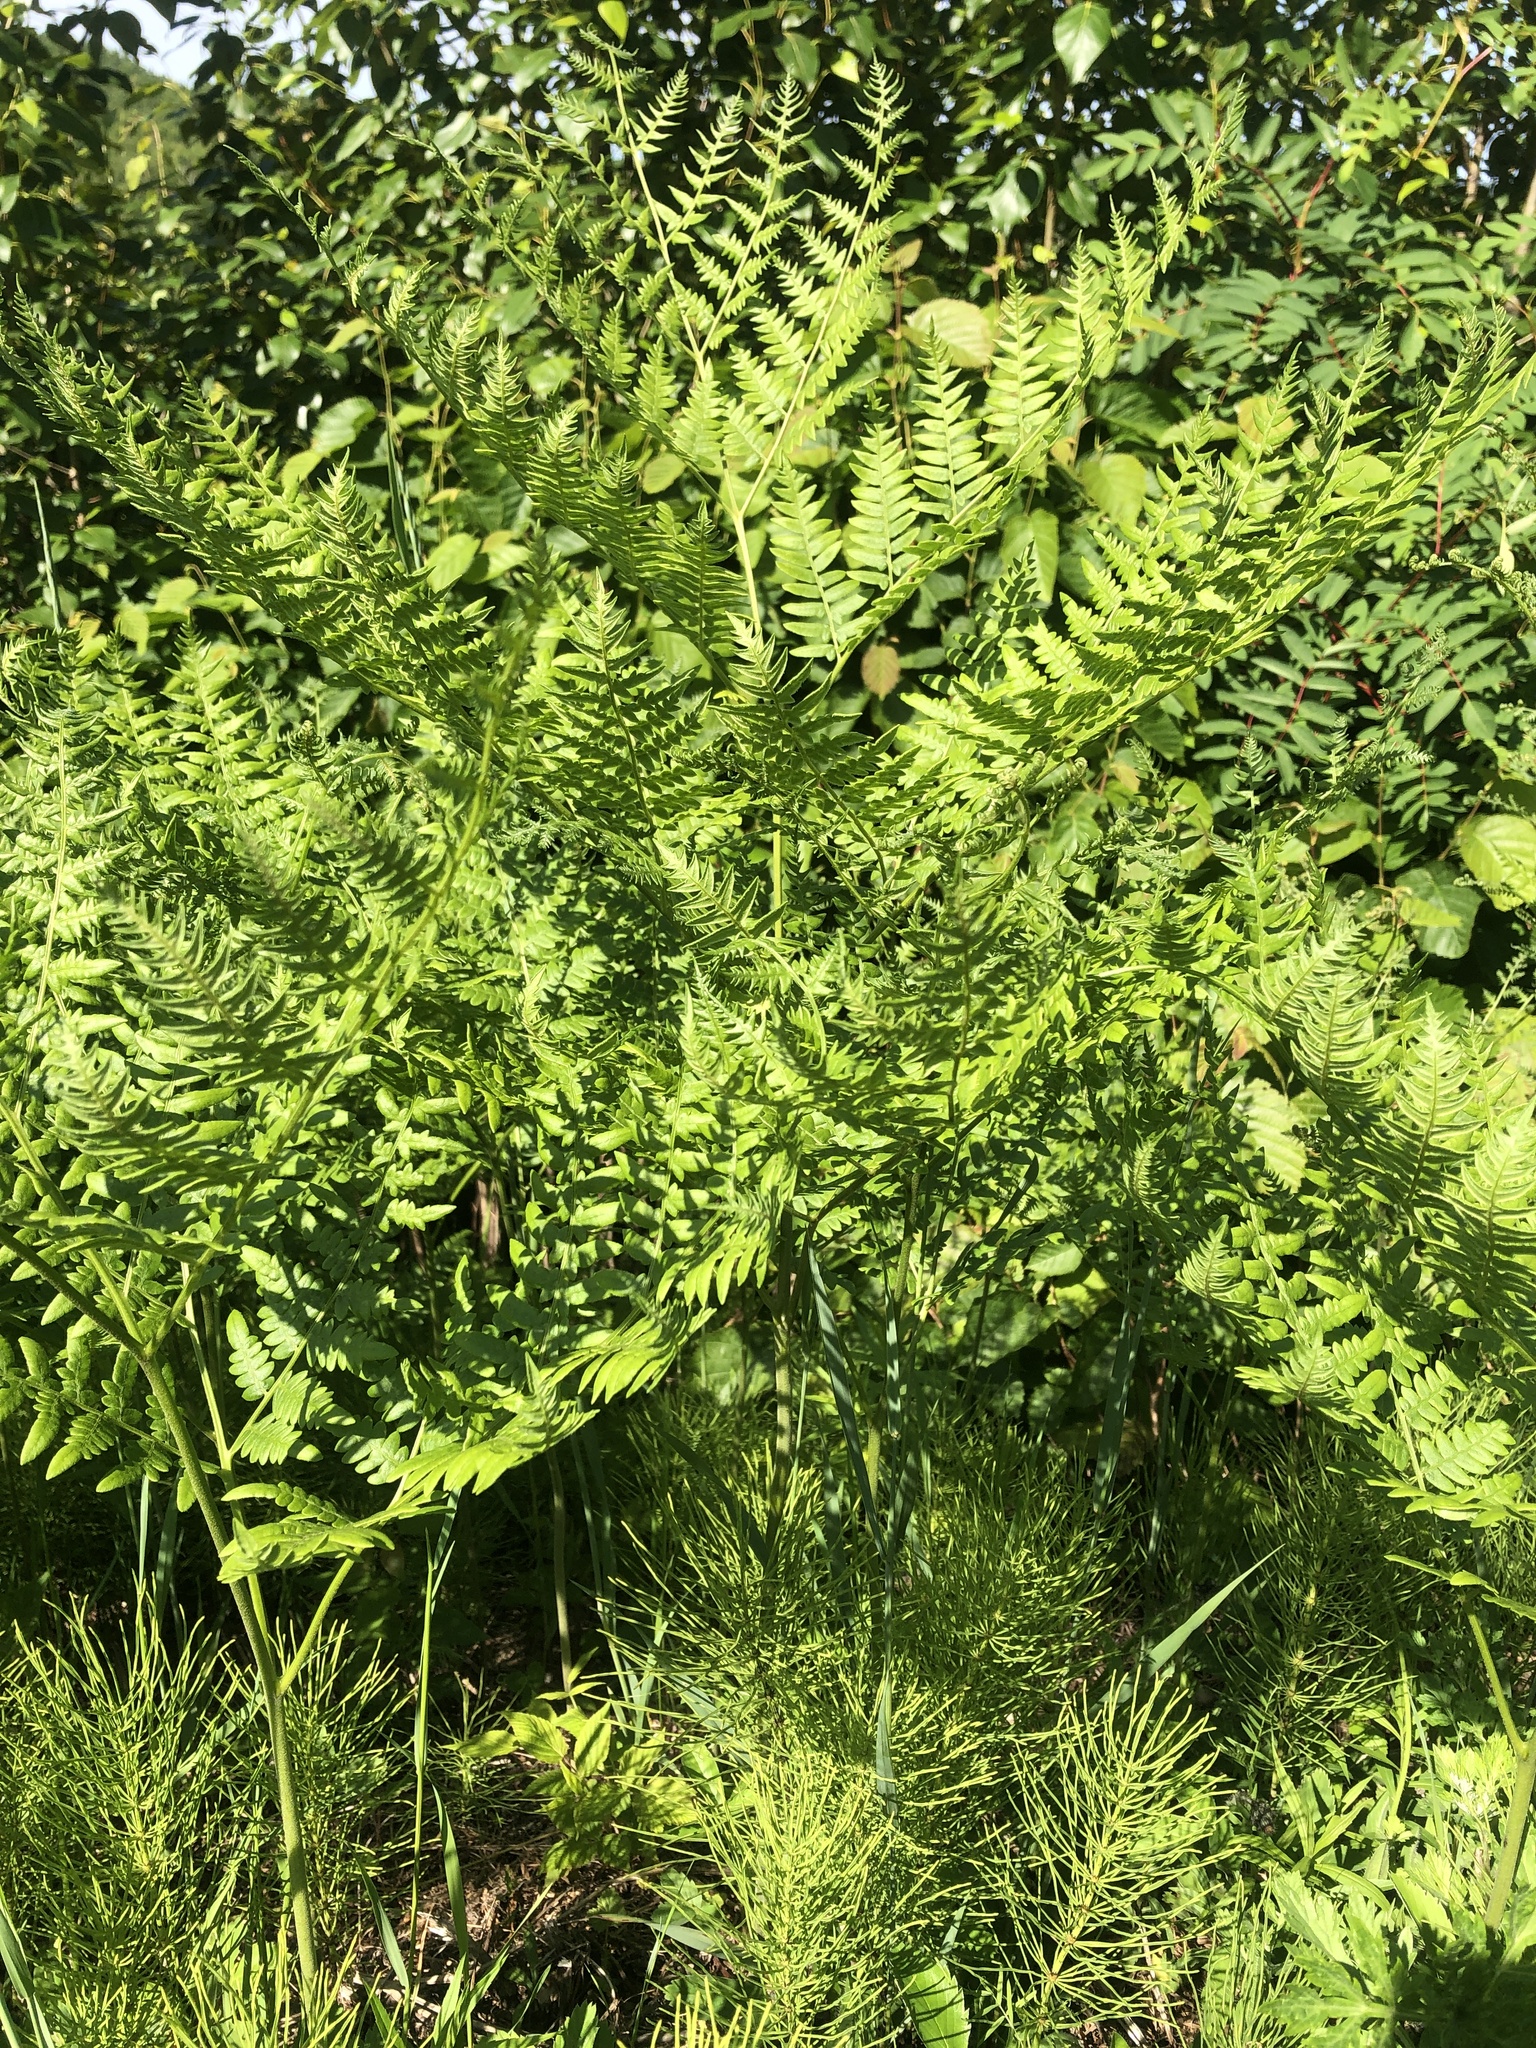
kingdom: Plantae
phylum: Tracheophyta
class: Polypodiopsida
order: Polypodiales
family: Dennstaedtiaceae
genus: Pteridium
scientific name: Pteridium aquilinum
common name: Bracken
